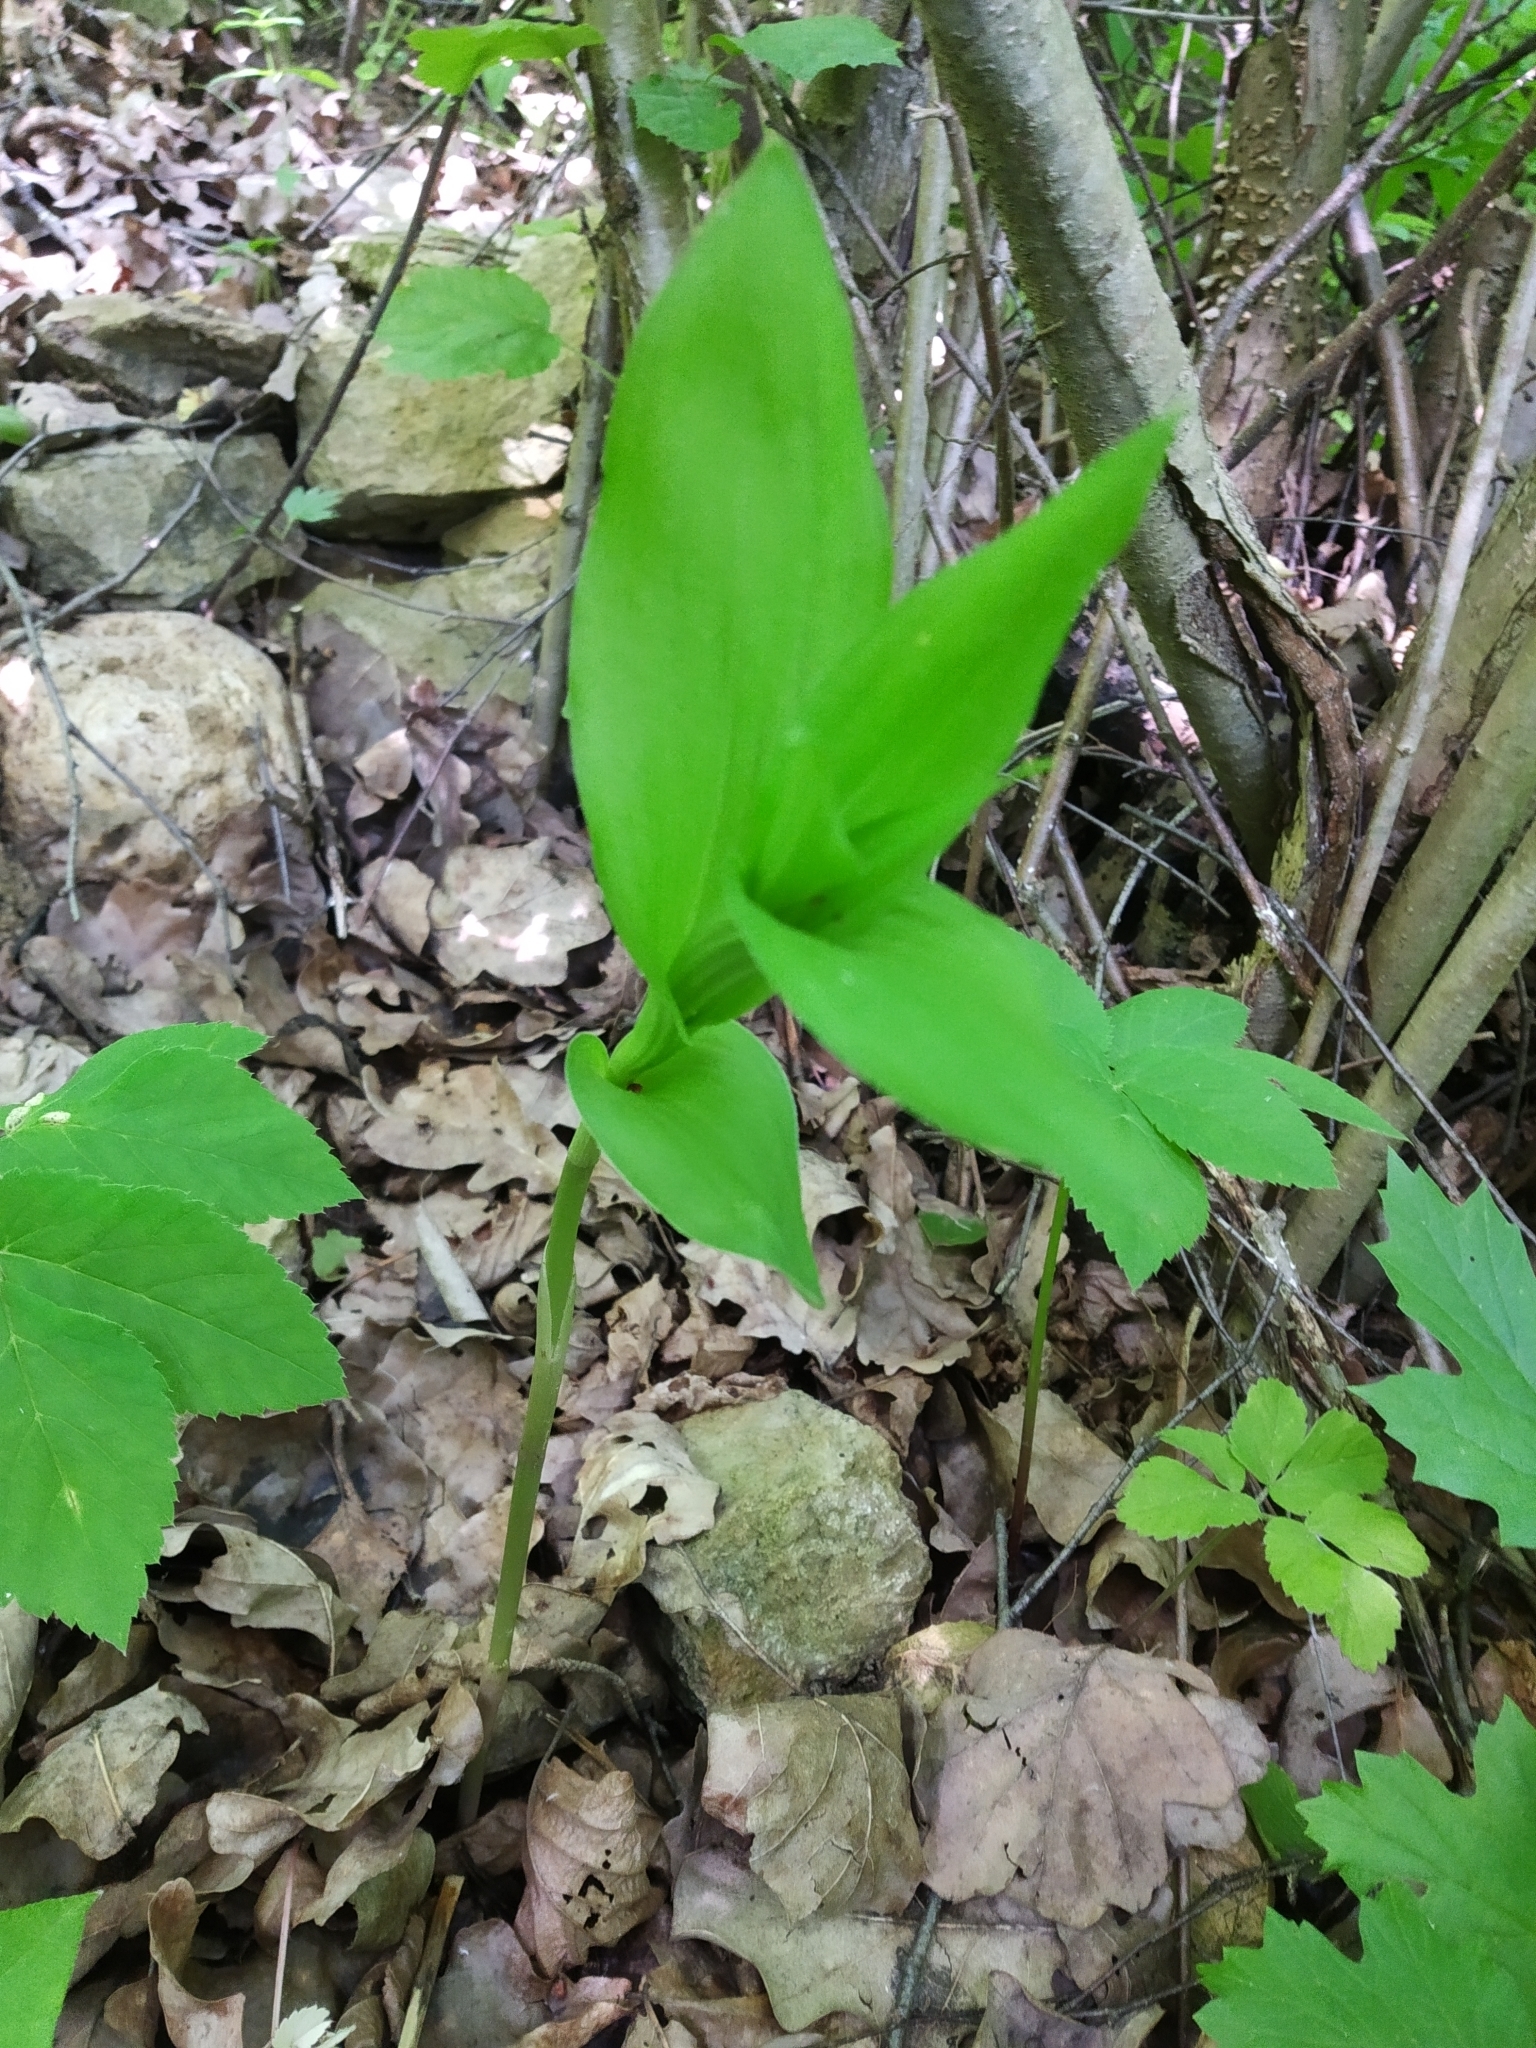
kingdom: Plantae
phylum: Tracheophyta
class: Liliopsida
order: Asparagales
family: Orchidaceae
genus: Epipactis
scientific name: Epipactis helleborine
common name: Broad-leaved helleborine
